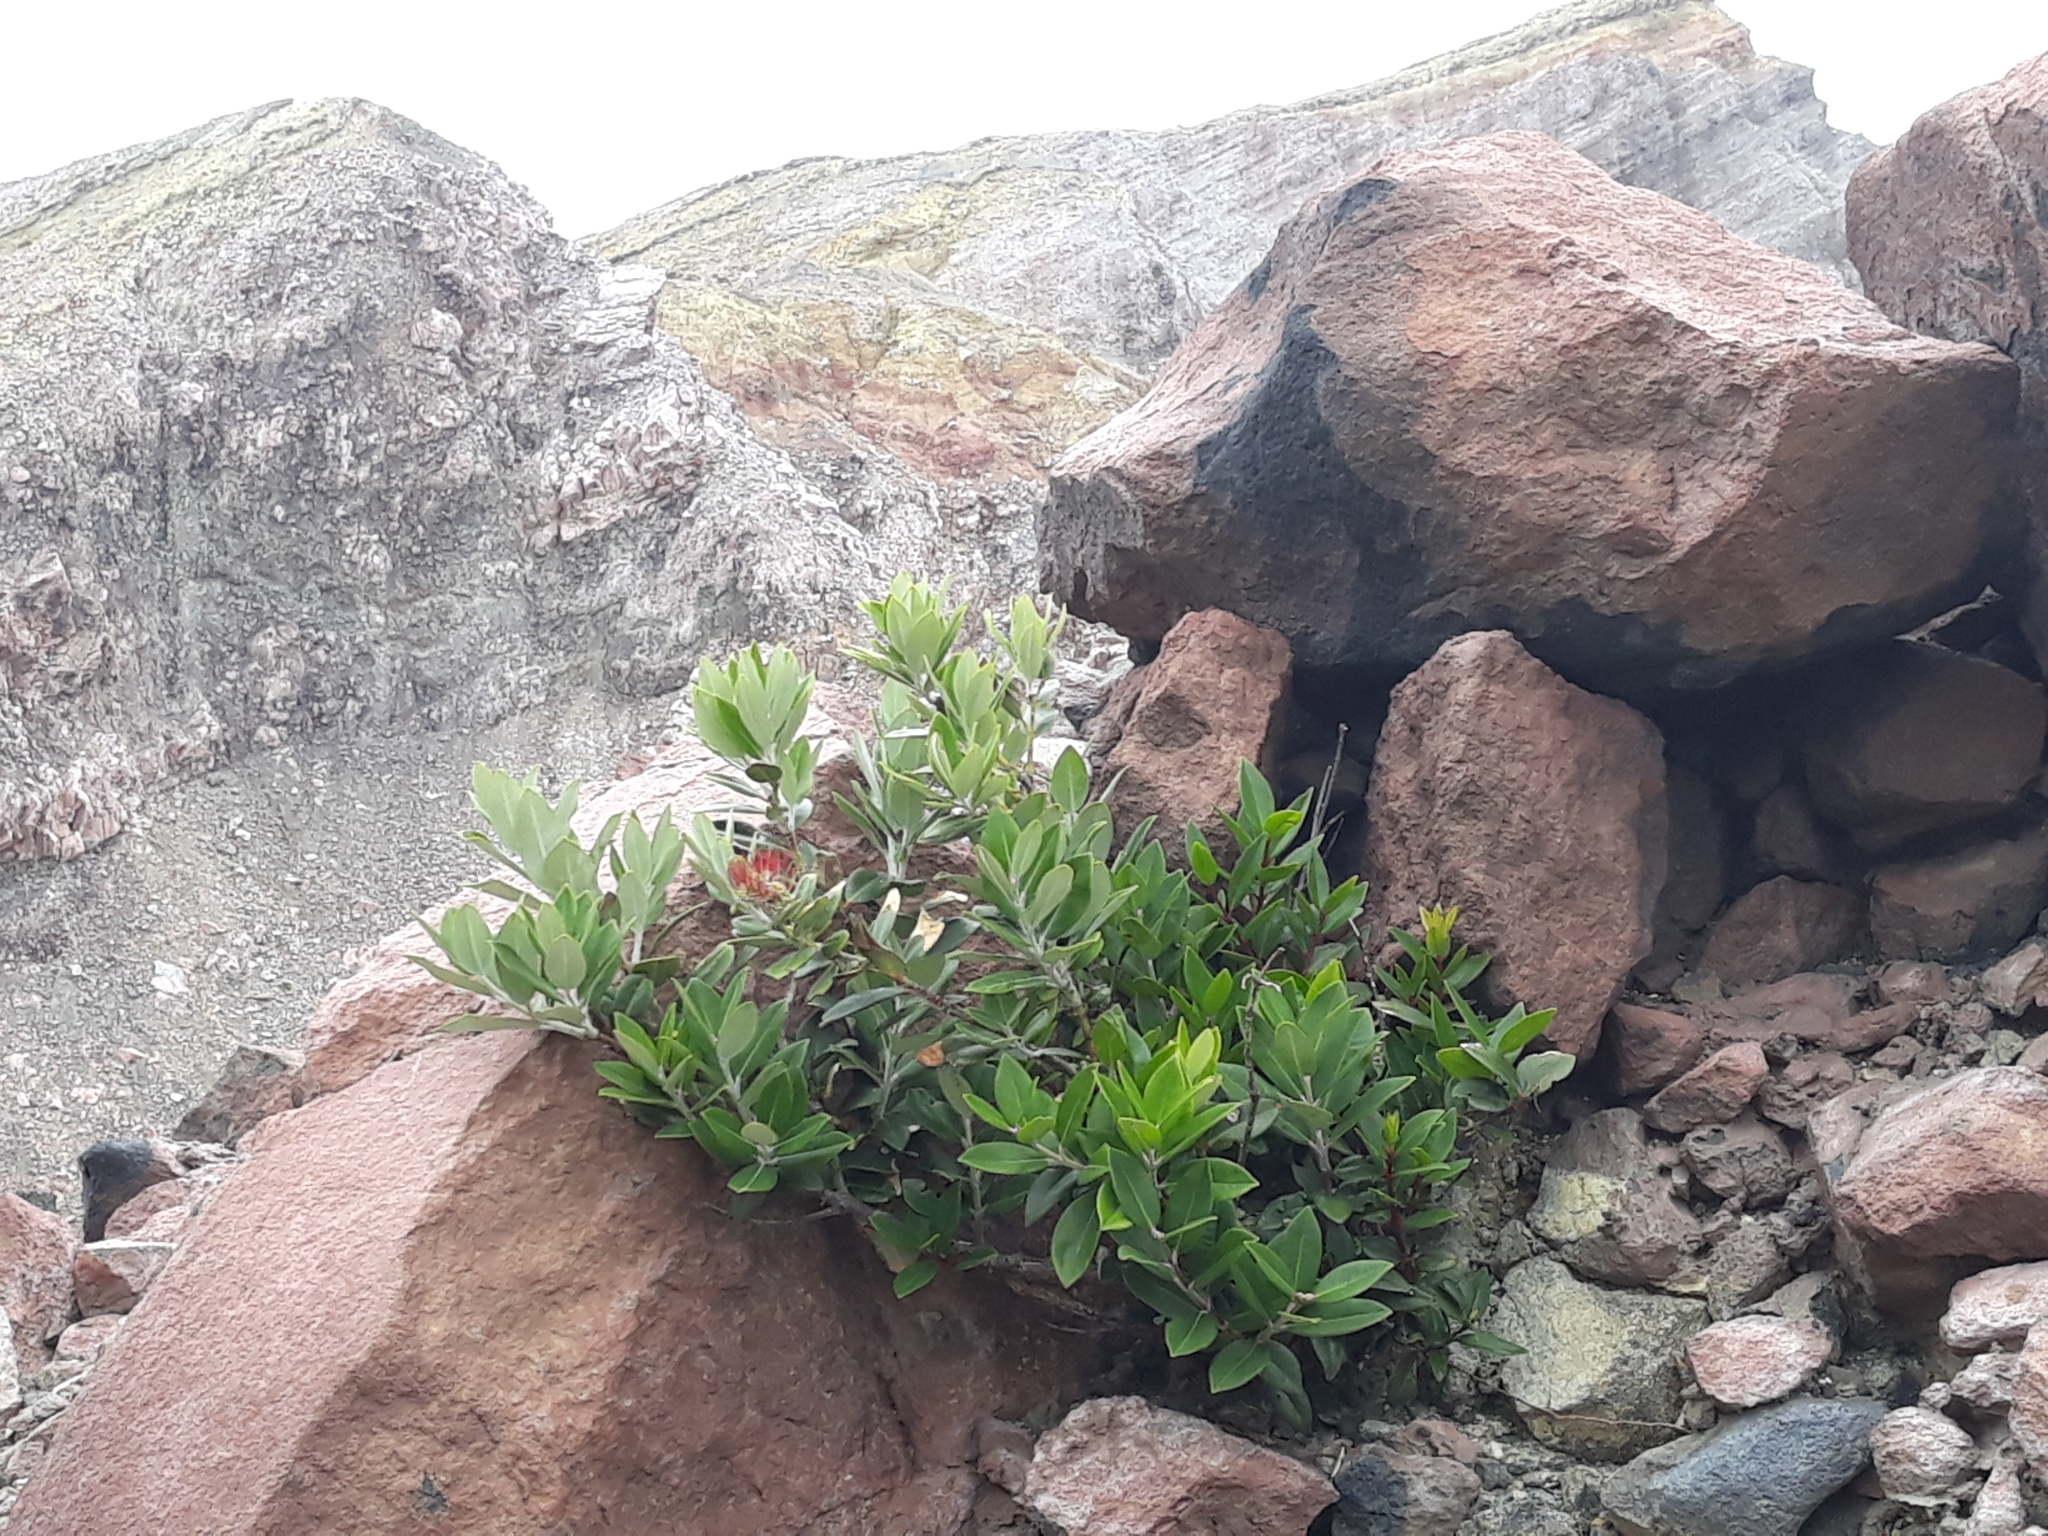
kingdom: Plantae
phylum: Tracheophyta
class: Magnoliopsida
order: Myrtales
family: Myrtaceae
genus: Metrosideros
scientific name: Metrosideros excelsa
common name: New zealand christmastree
